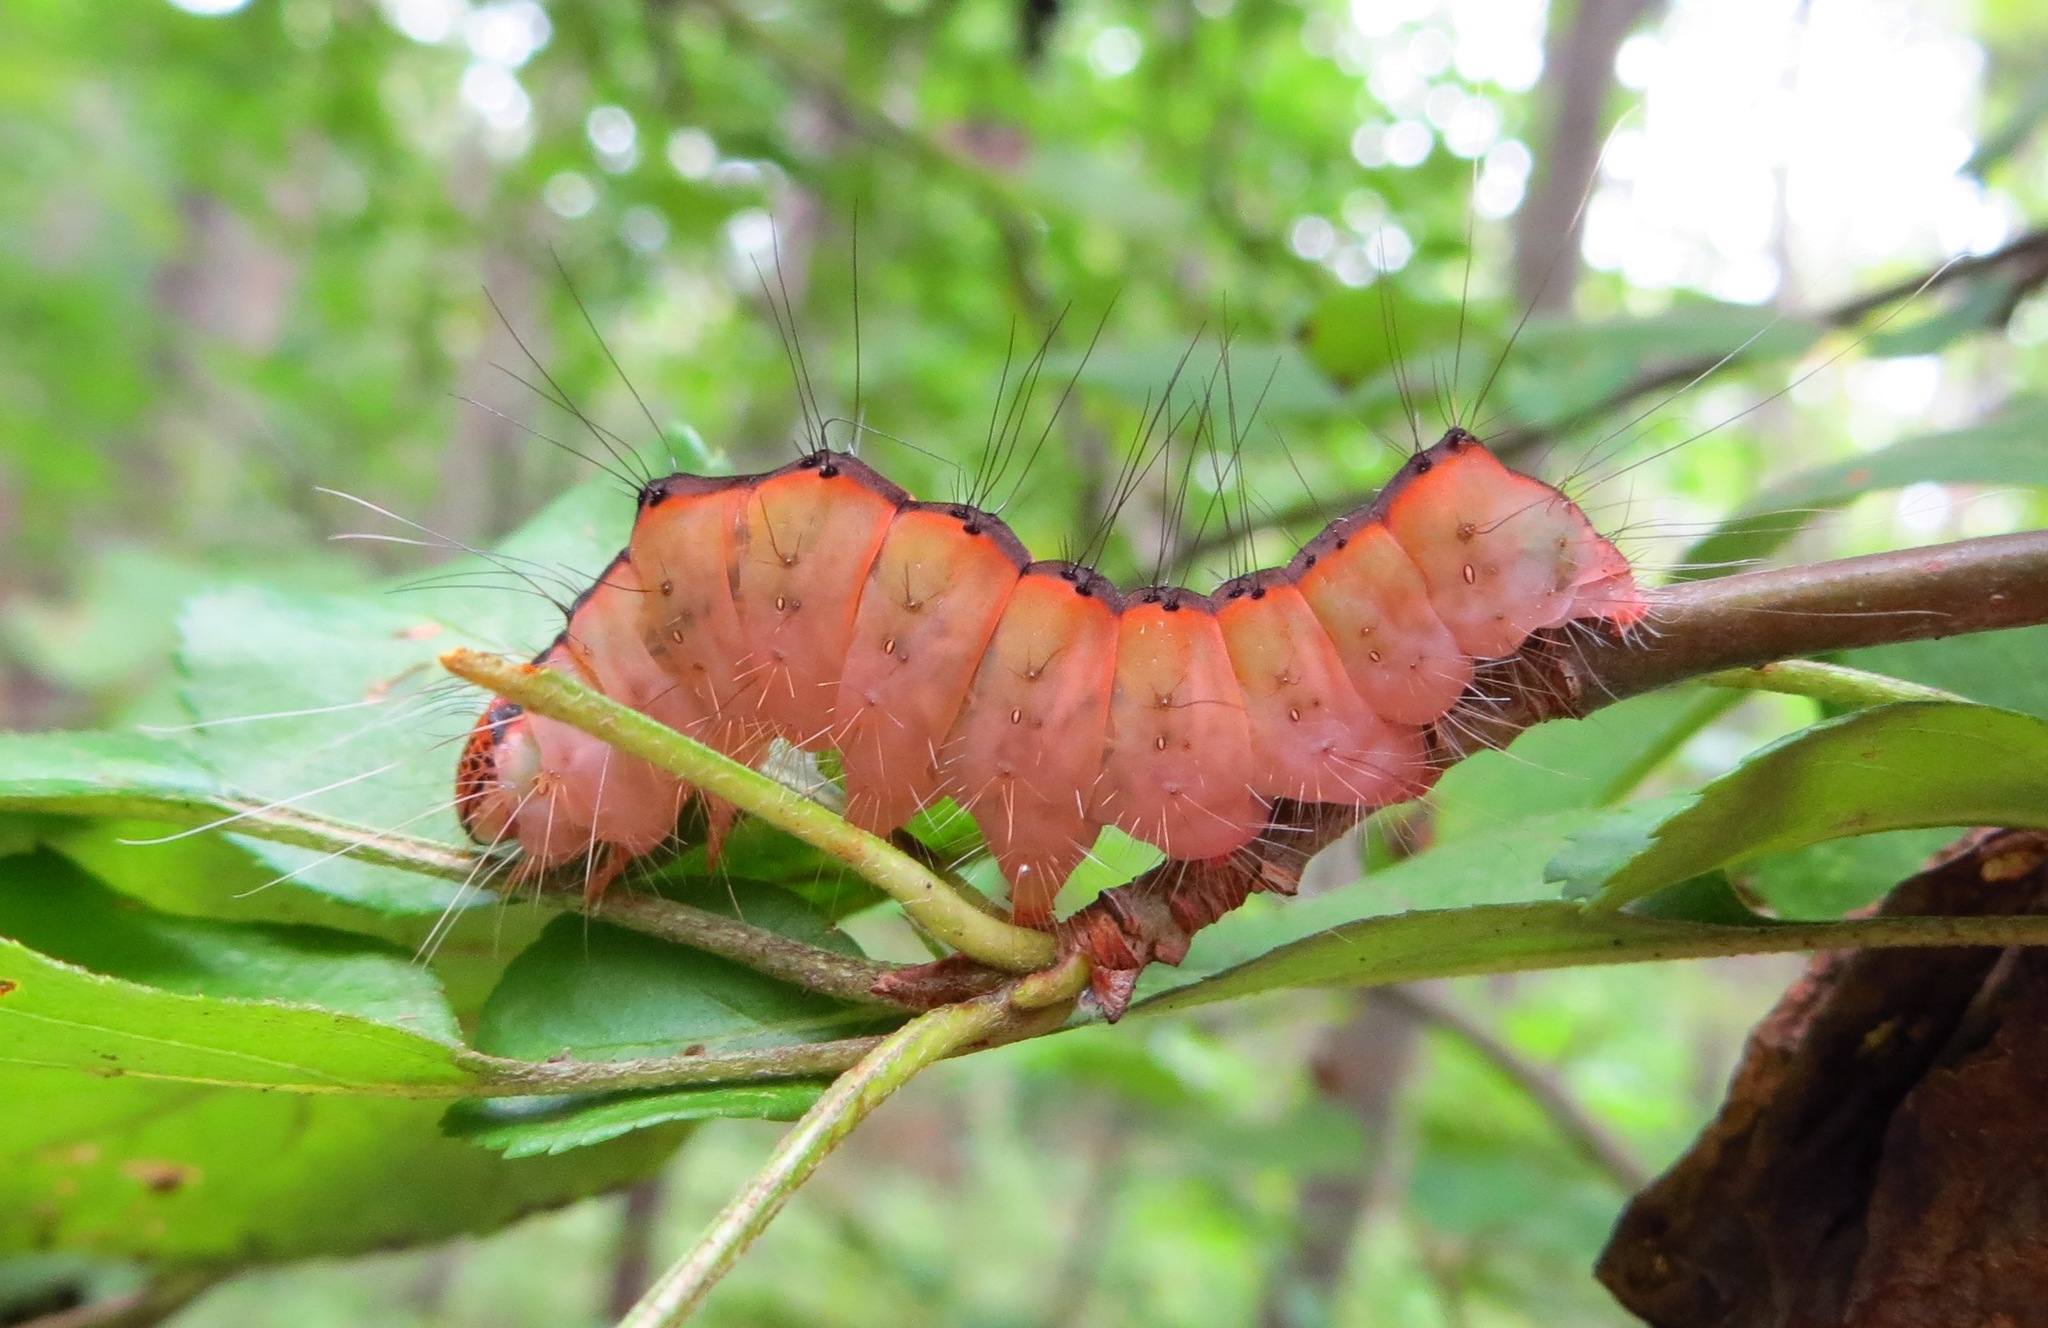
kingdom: Animalia
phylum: Arthropoda
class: Insecta
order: Lepidoptera
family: Noctuidae
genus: Acronicta
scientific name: Acronicta superans
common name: Splendid dagger
